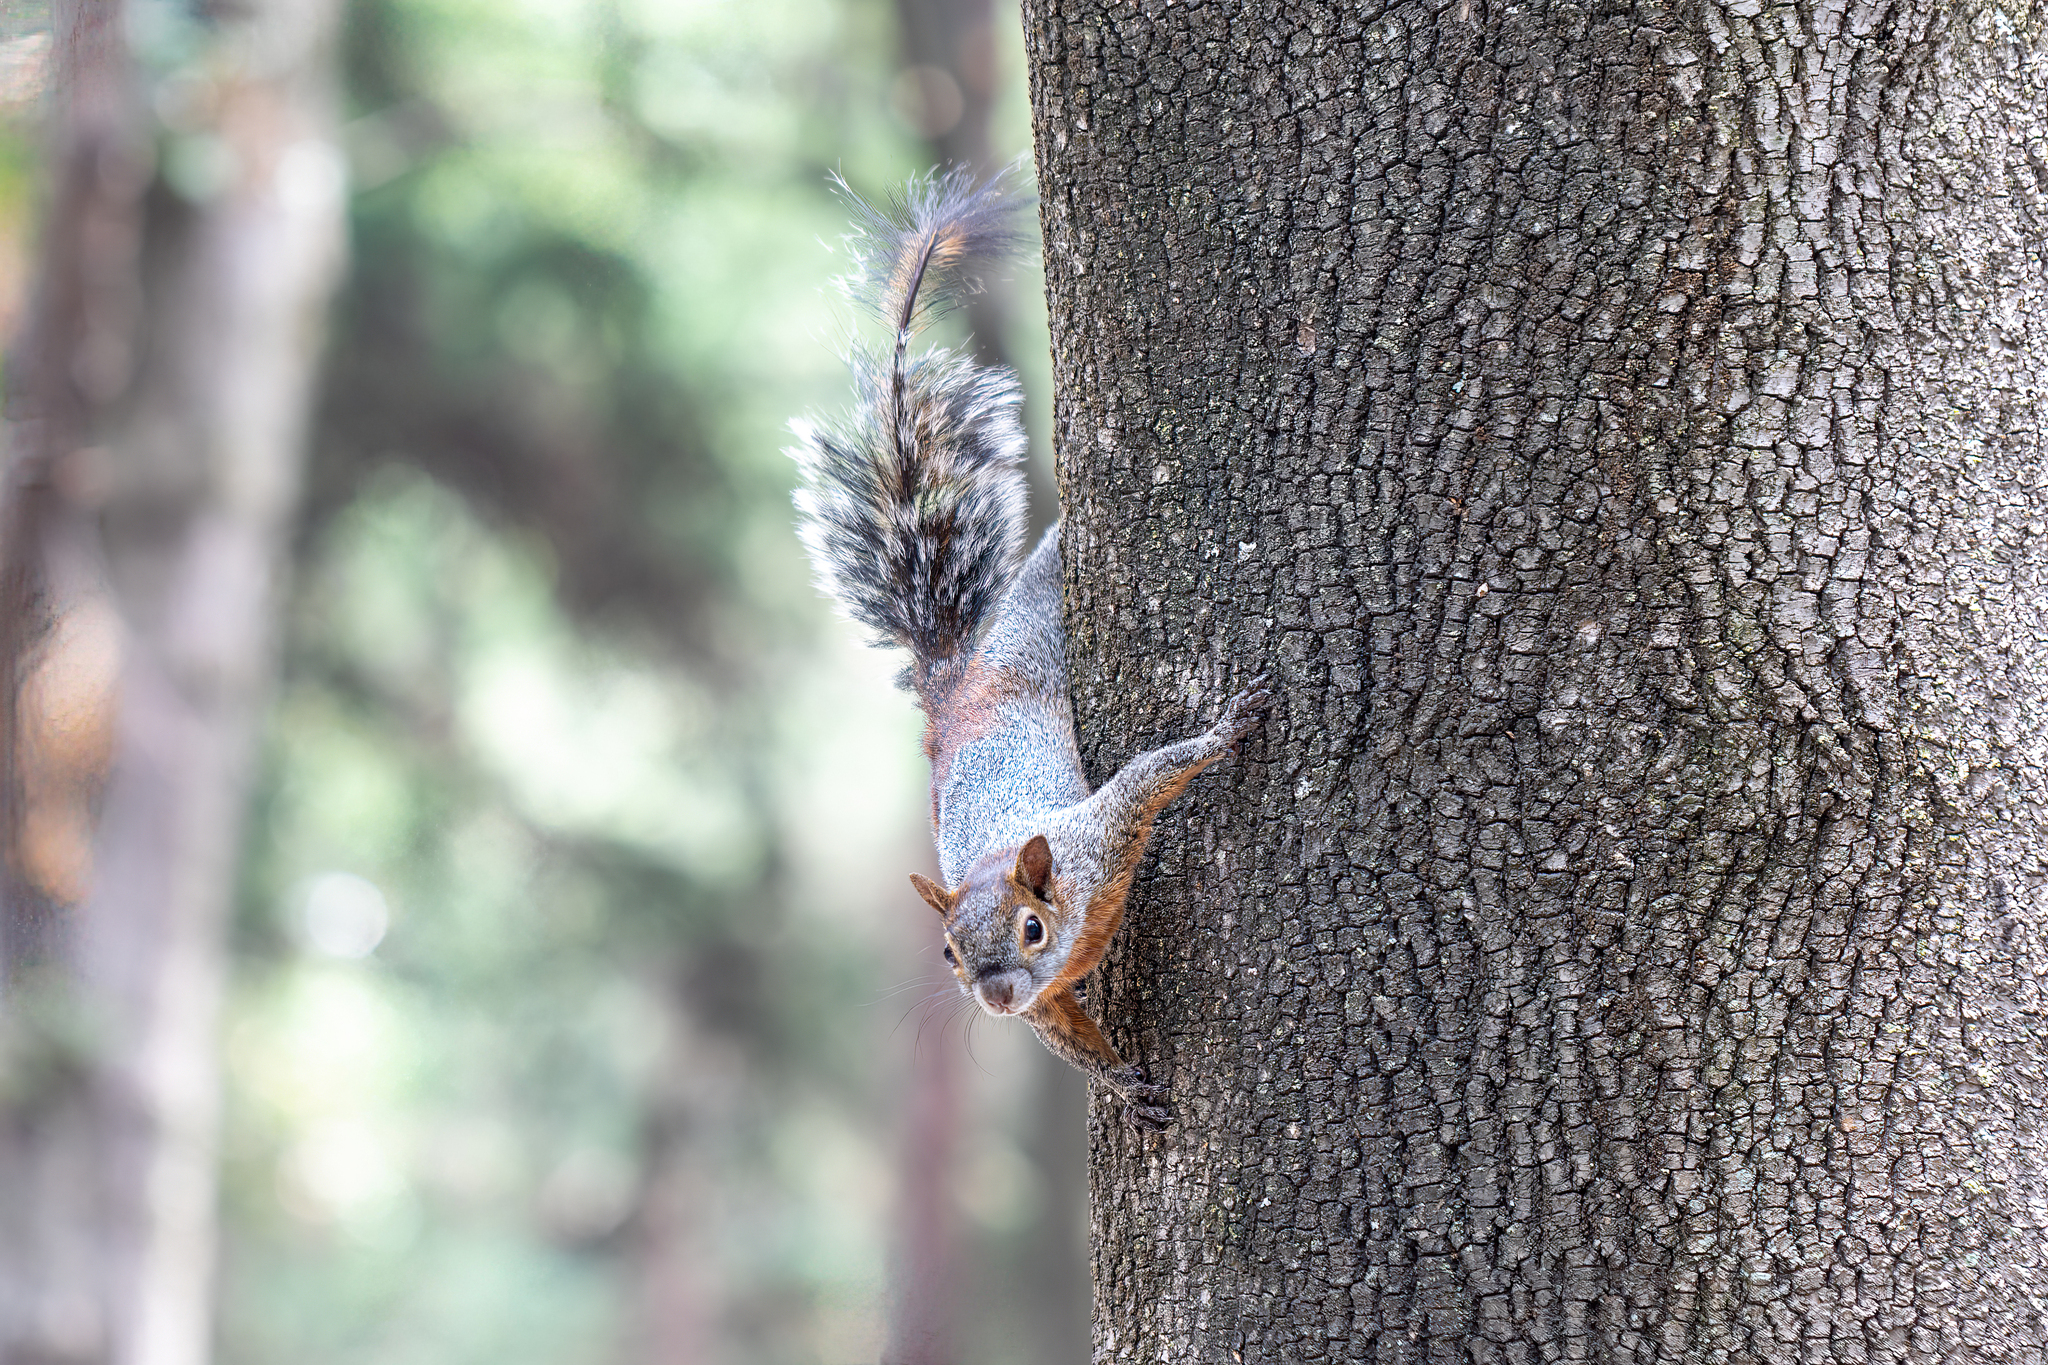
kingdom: Animalia
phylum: Chordata
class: Mammalia
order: Rodentia
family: Sciuridae
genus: Sciurus
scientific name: Sciurus aureogaster
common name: Red-bellied squirrel
